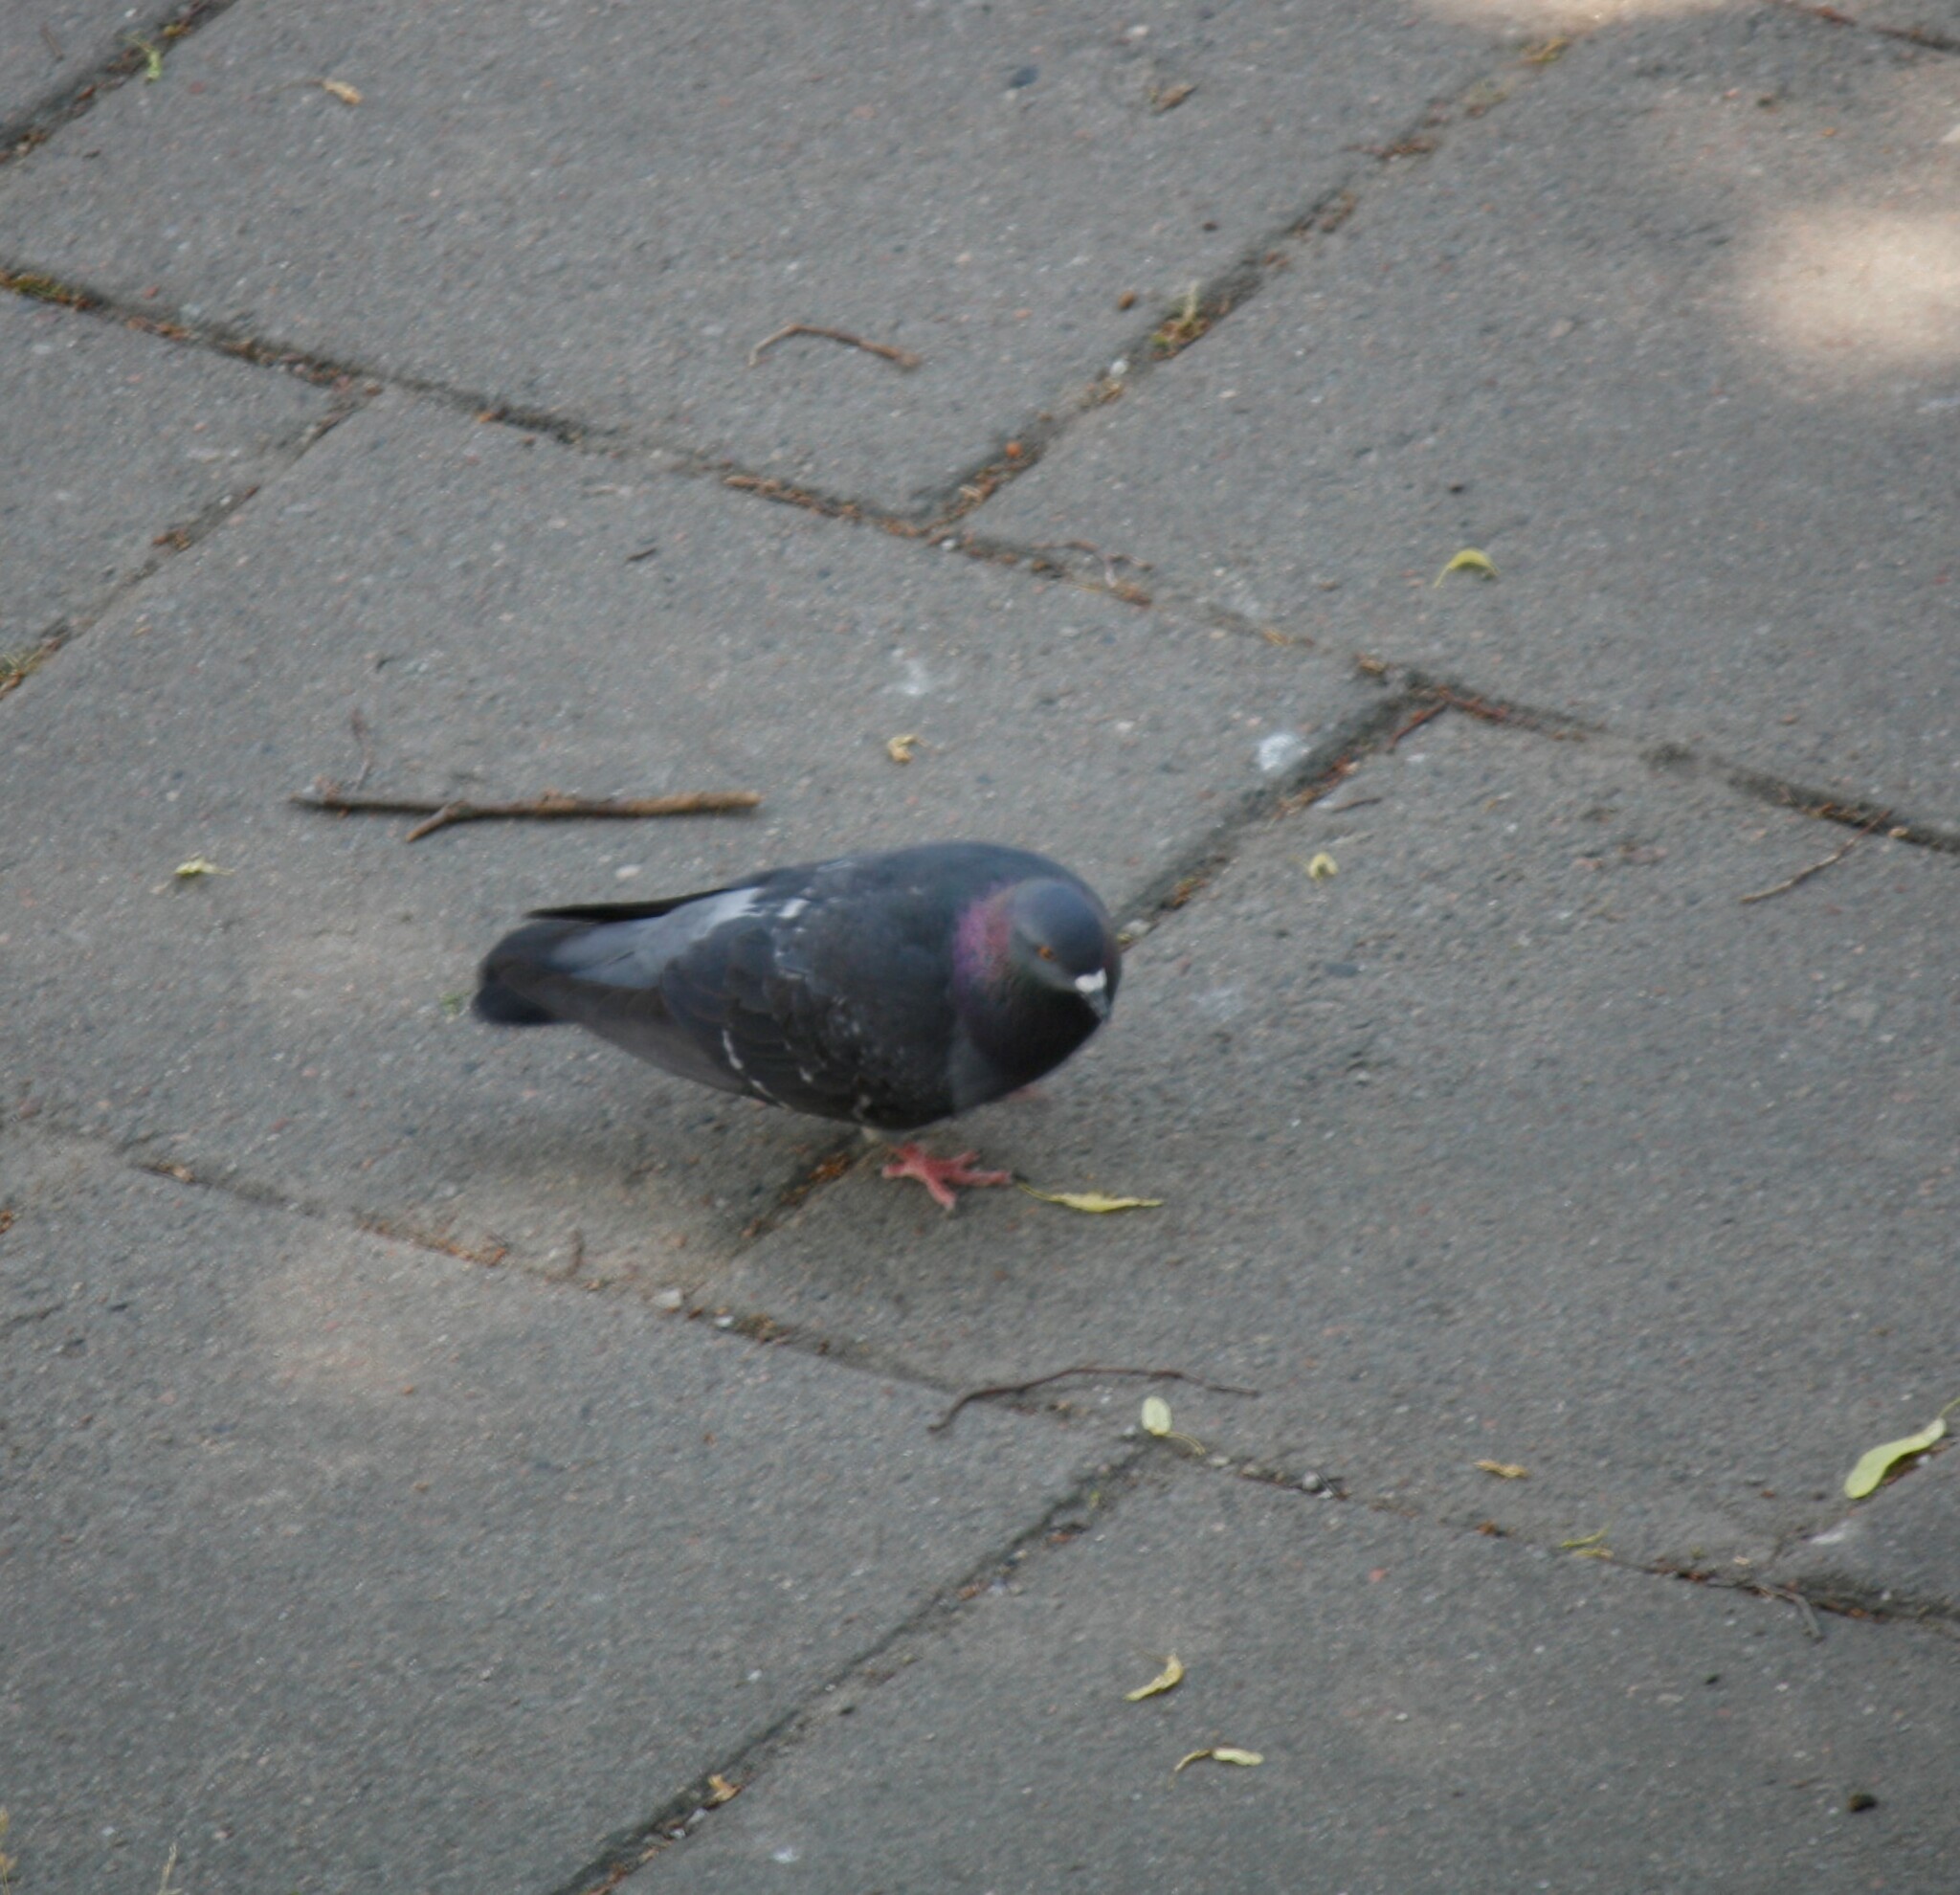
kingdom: Animalia
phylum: Chordata
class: Aves
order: Columbiformes
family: Columbidae
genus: Columba
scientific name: Columba livia
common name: Rock pigeon
